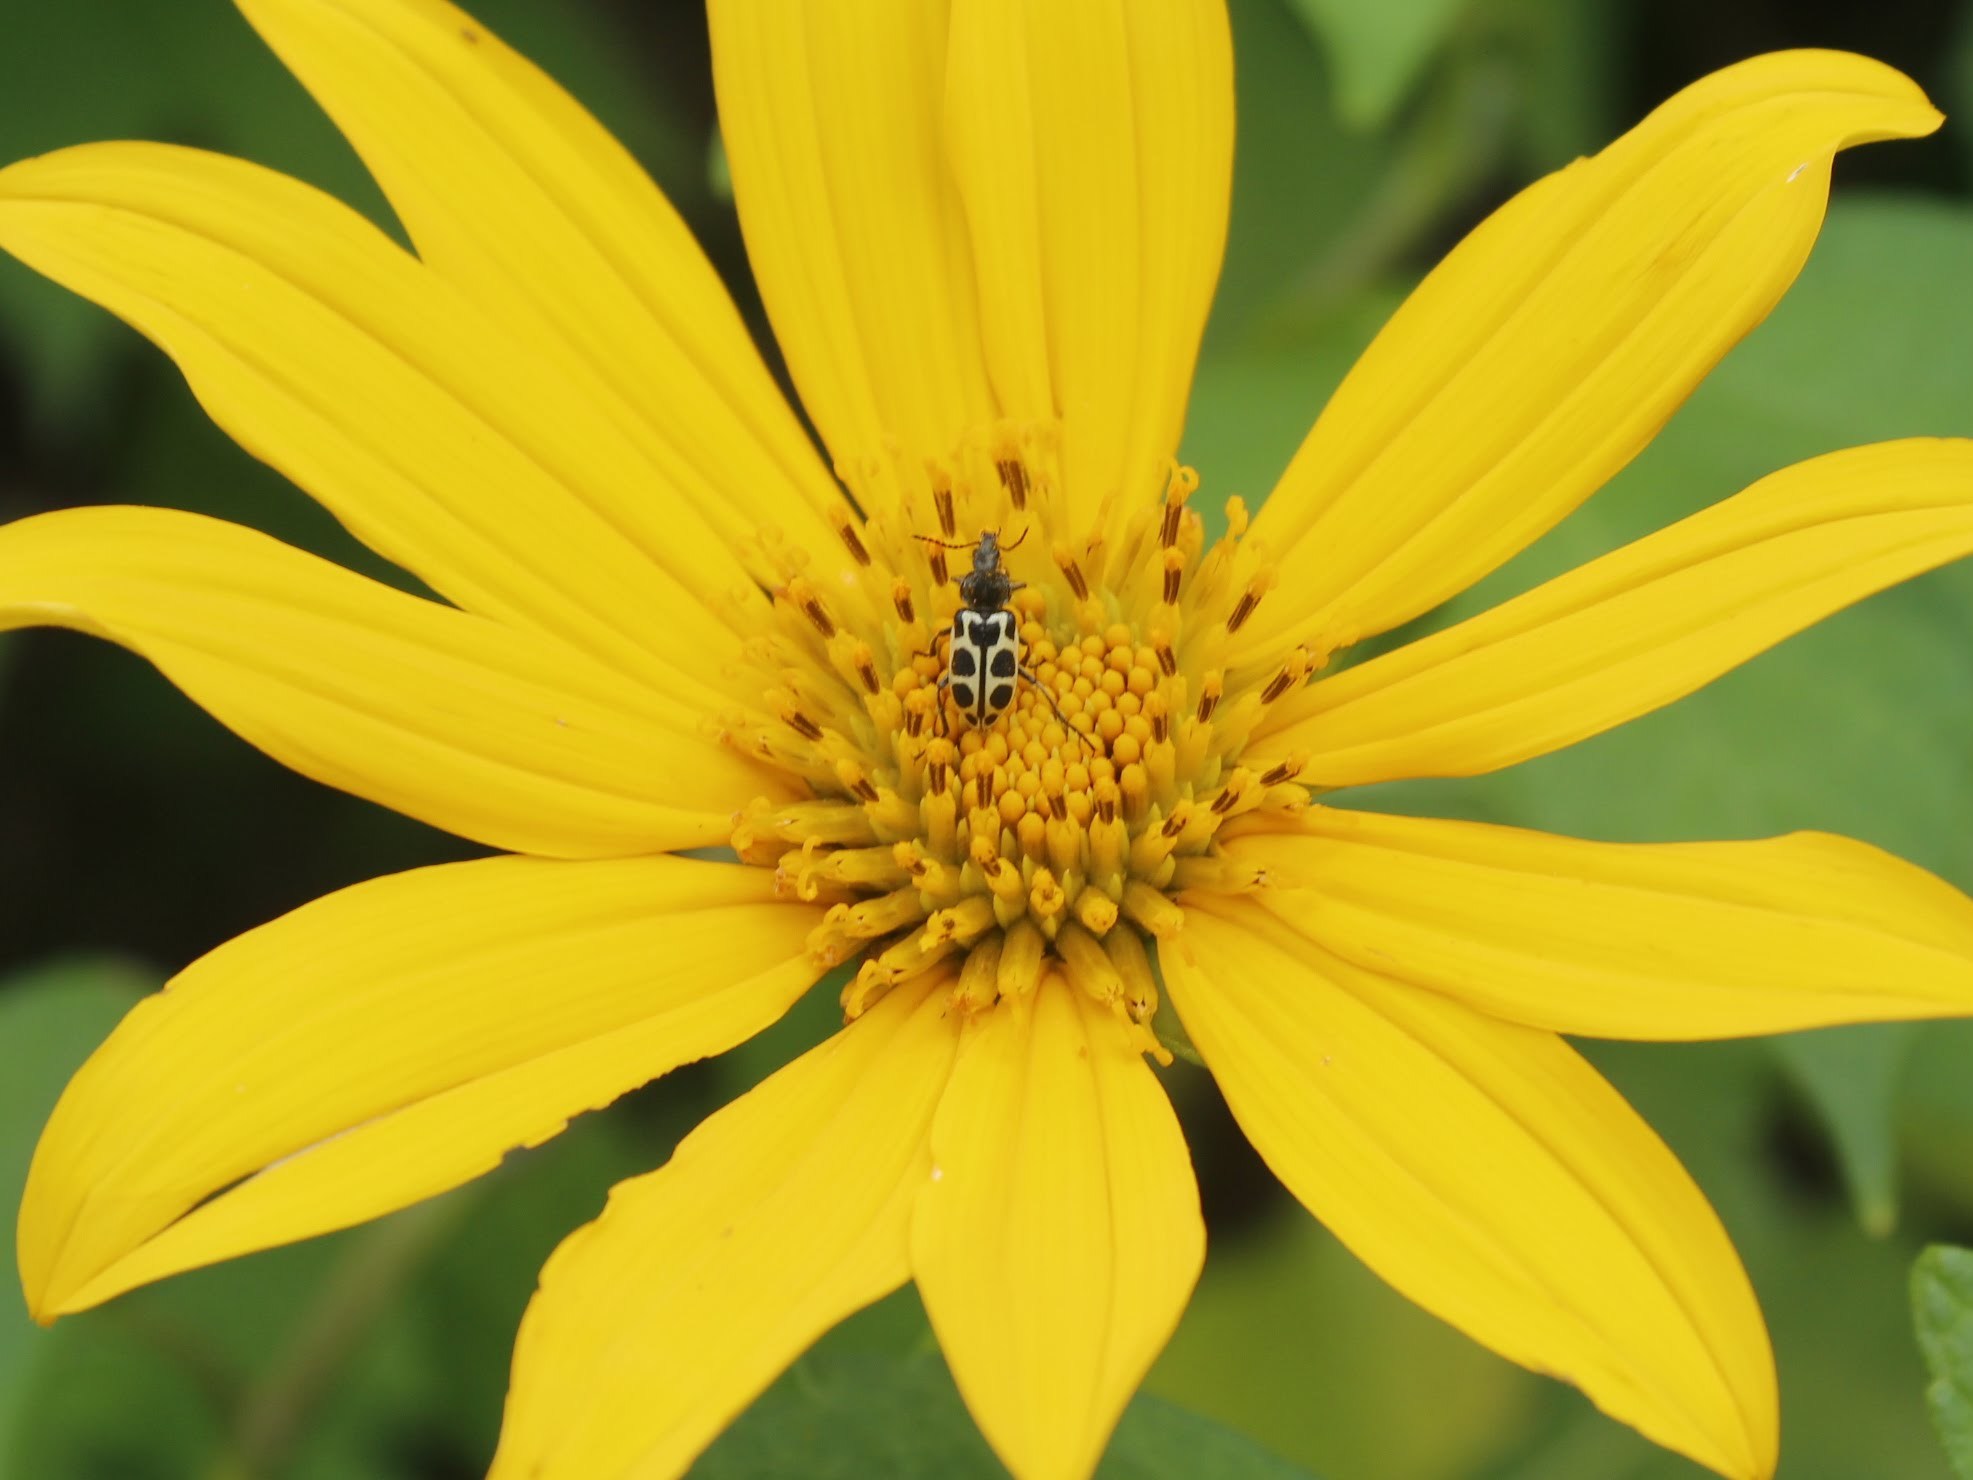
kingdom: Animalia
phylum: Arthropoda
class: Insecta
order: Coleoptera
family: Melyridae
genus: Astylus
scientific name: Astylus
